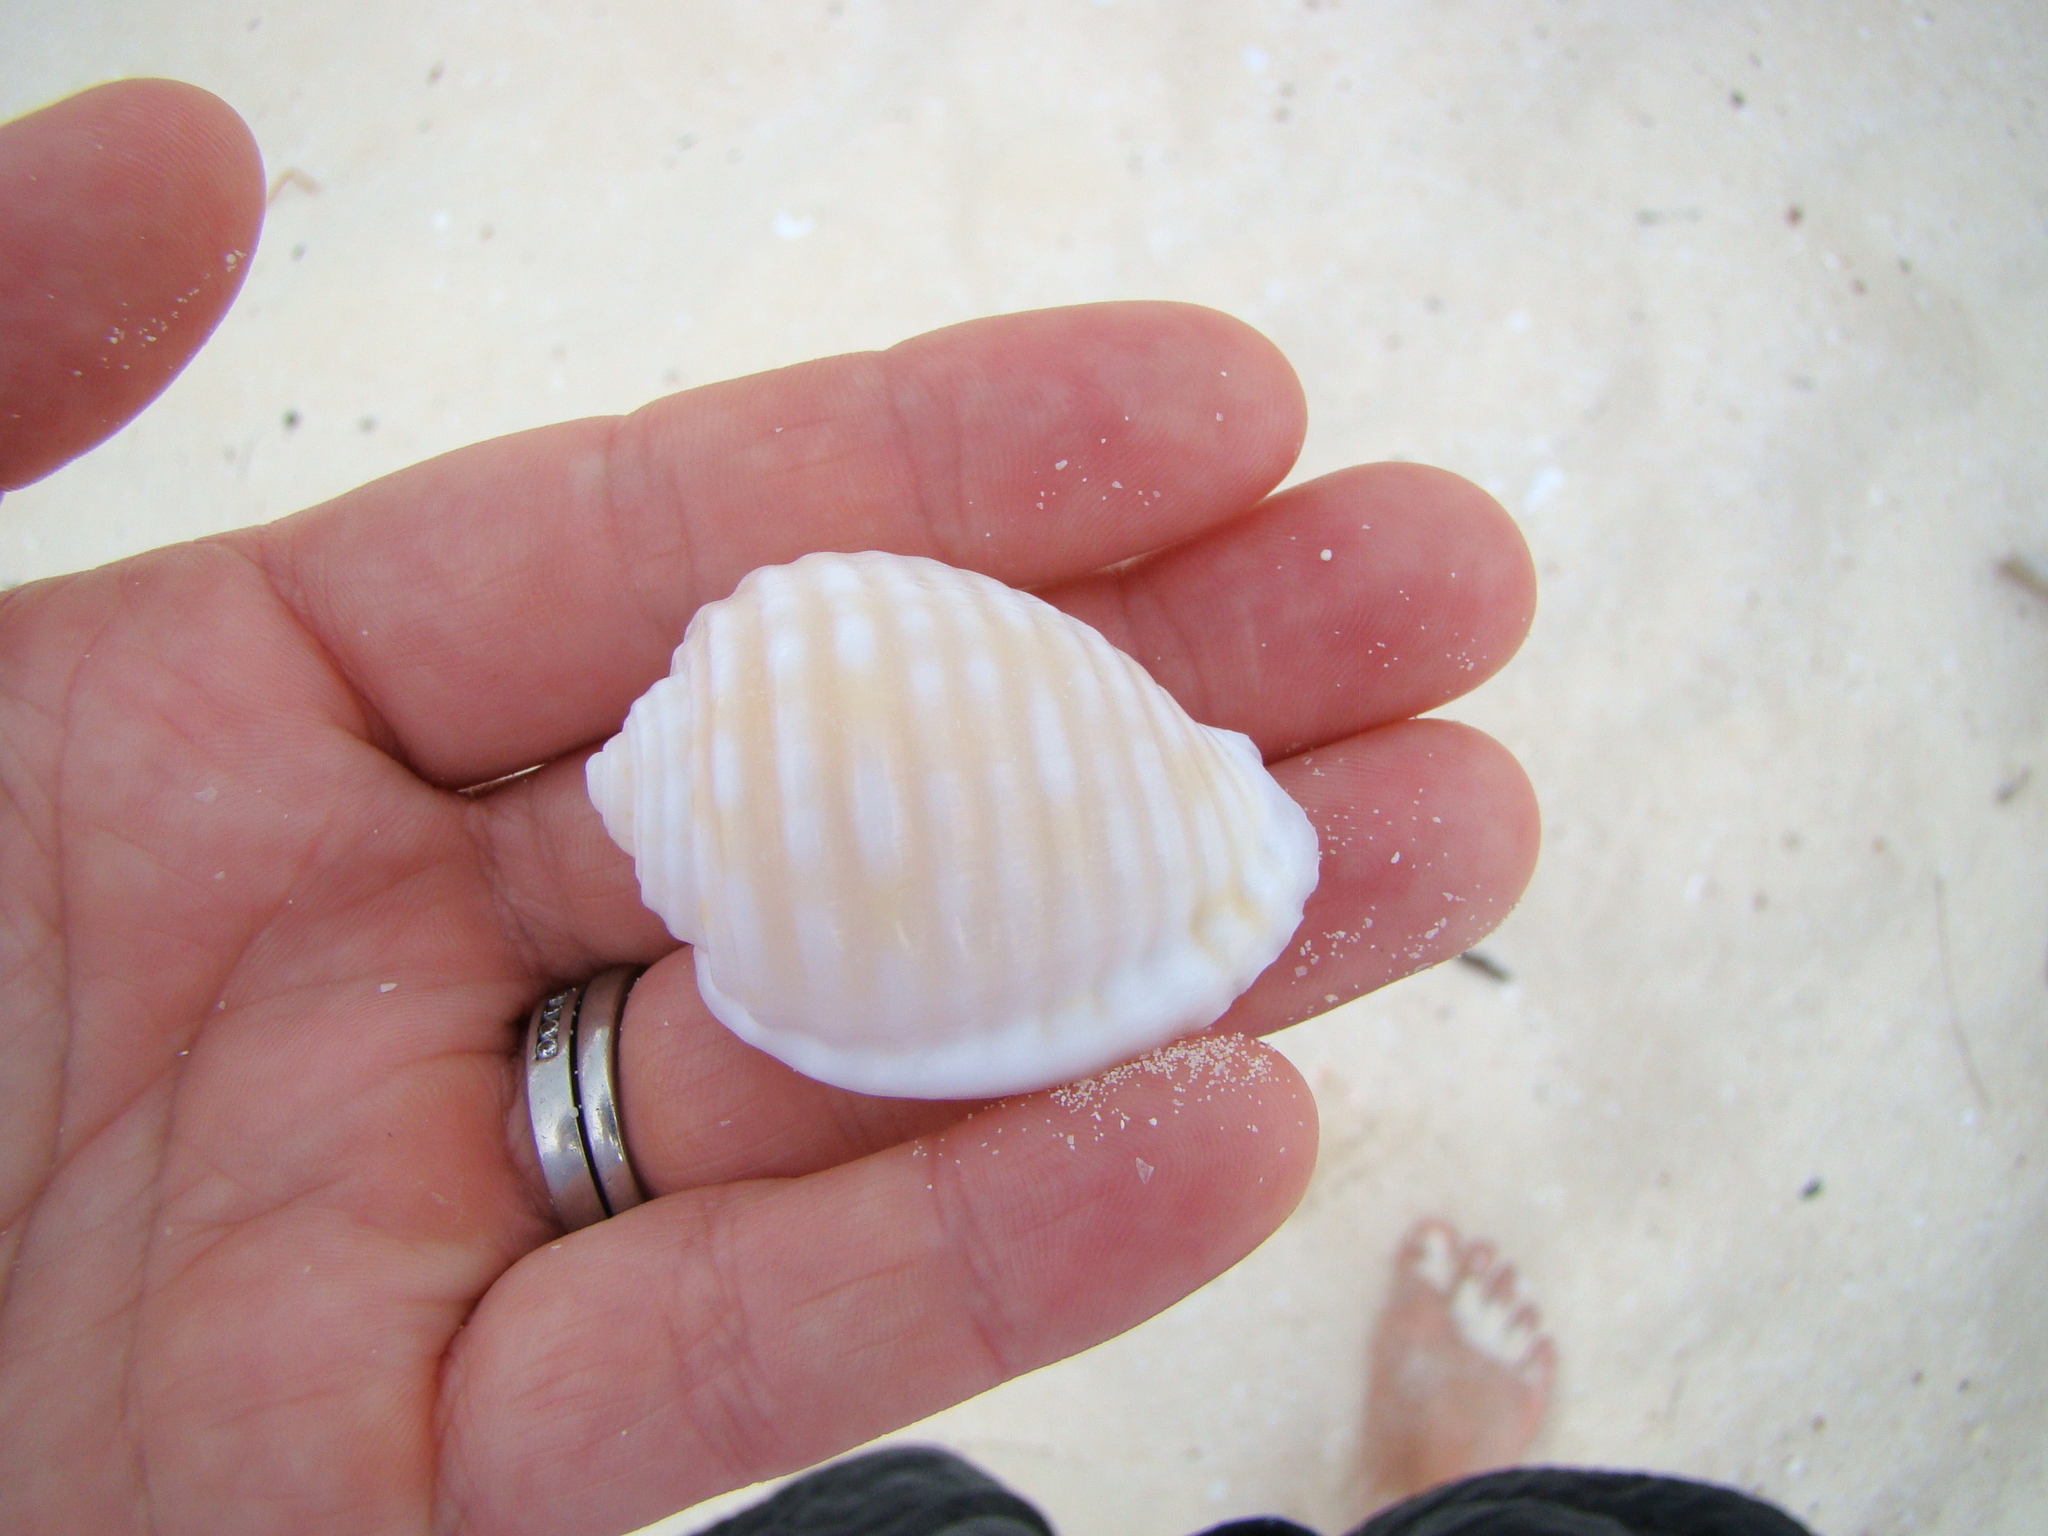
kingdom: Animalia
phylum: Mollusca
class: Gastropoda
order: Littorinimorpha
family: Tonnidae
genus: Malea
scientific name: Malea pomum
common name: Pacific grinning tun
